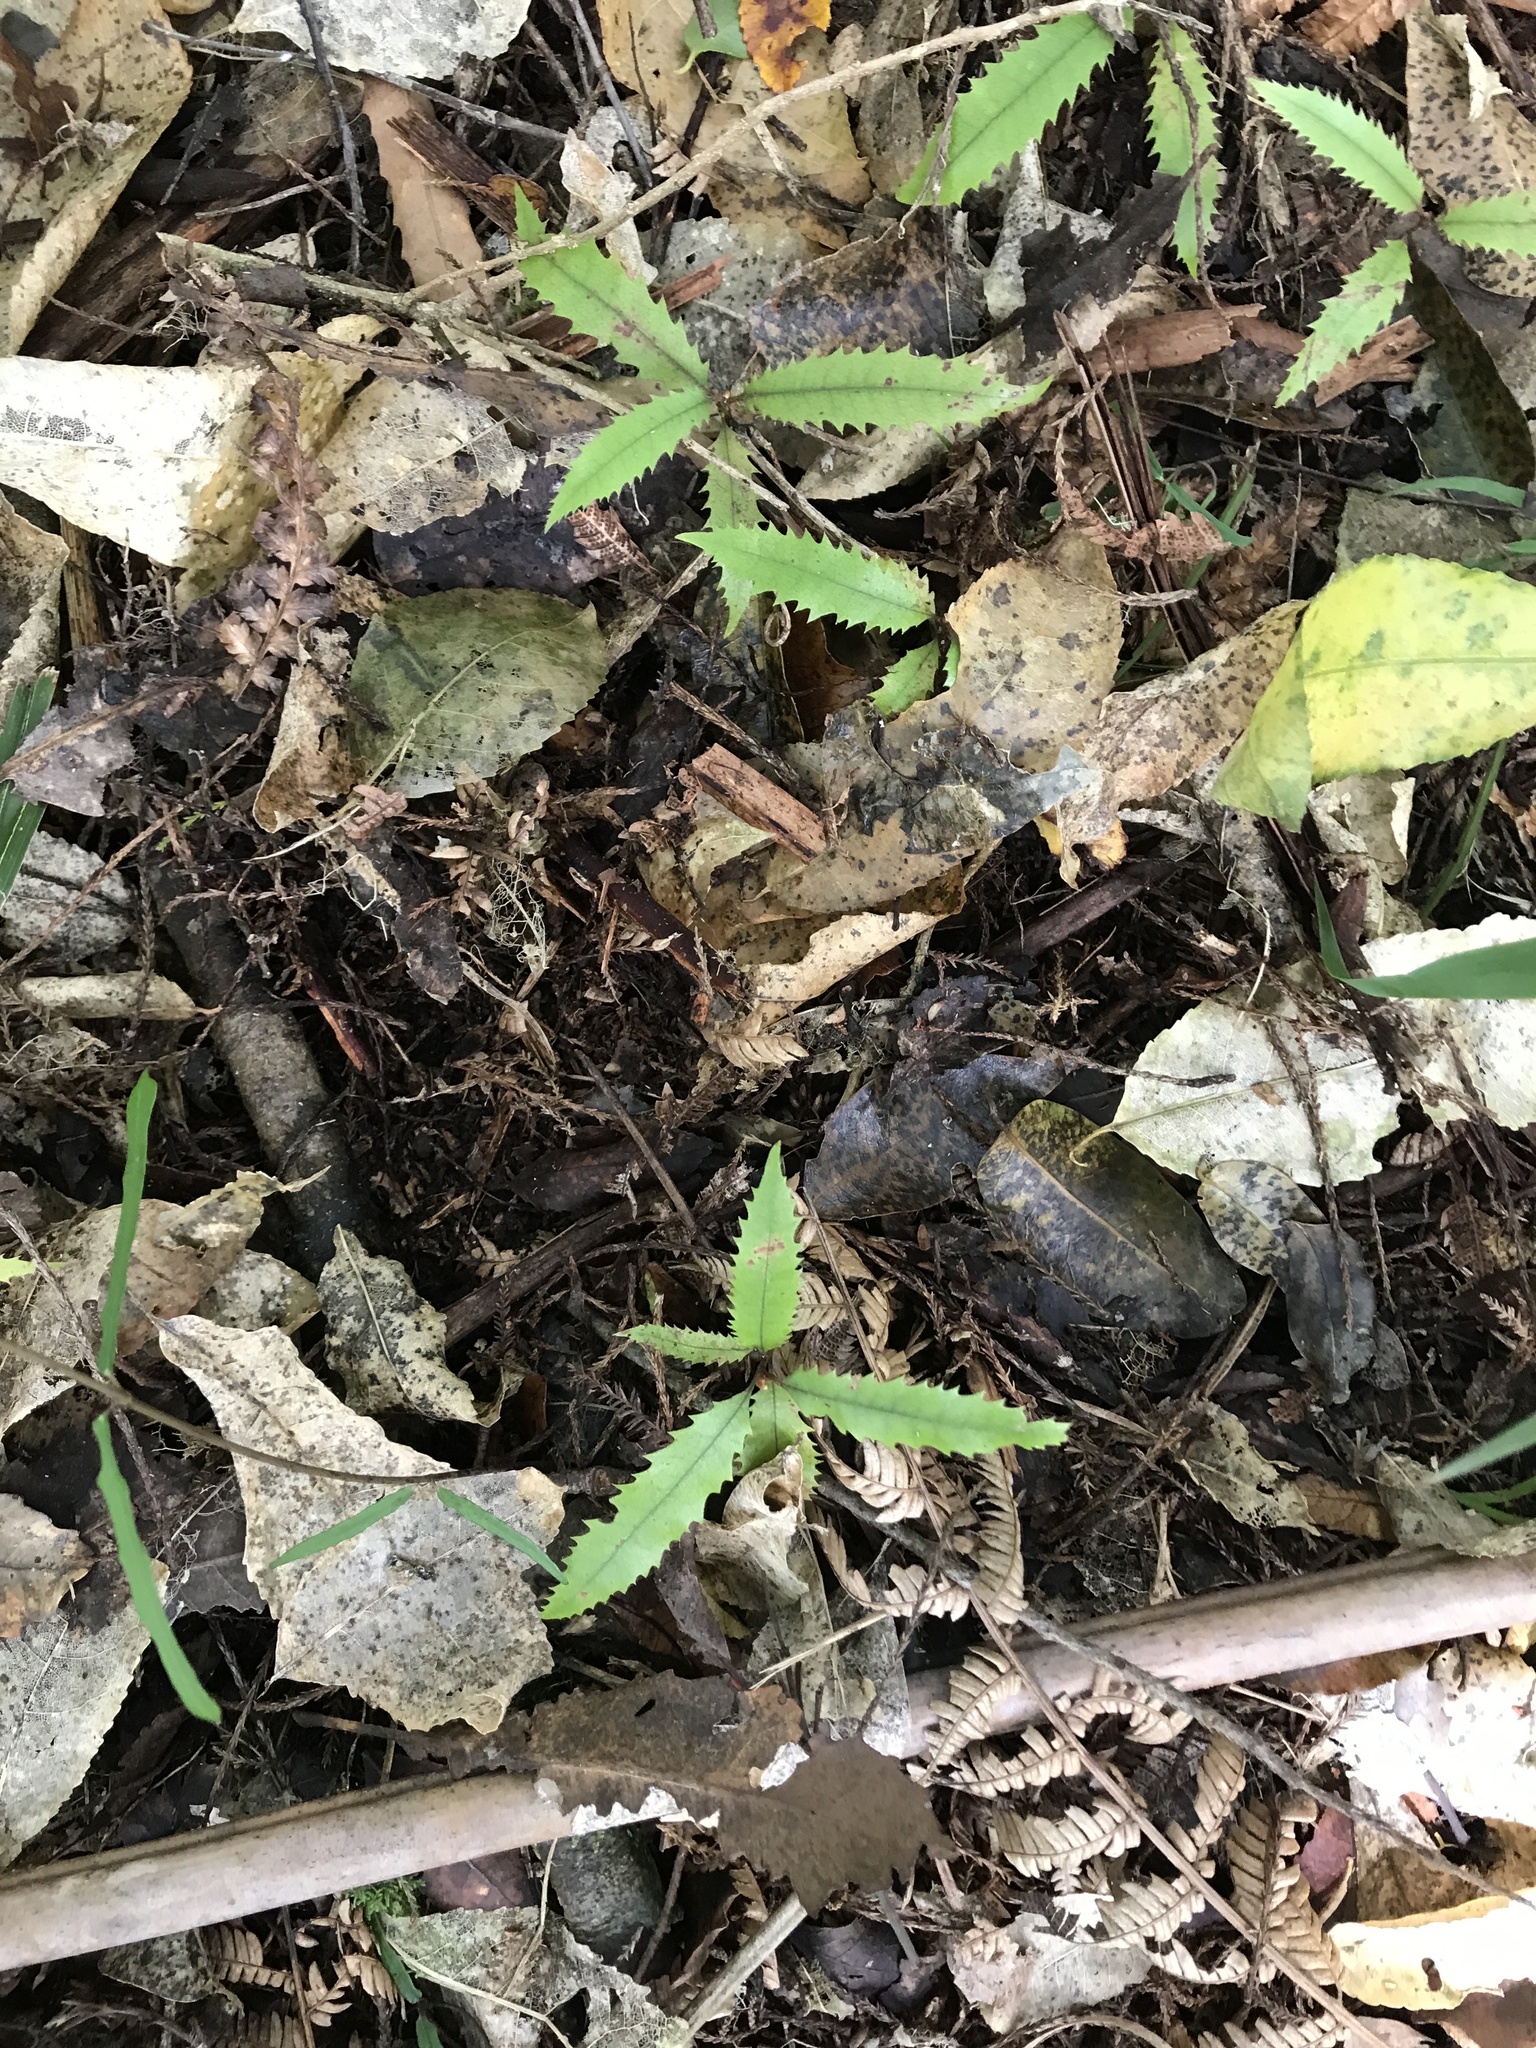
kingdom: Plantae
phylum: Tracheophyta
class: Magnoliopsida
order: Proteales
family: Proteaceae
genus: Knightia
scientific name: Knightia excelsa
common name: New zealand-honeysuckle
